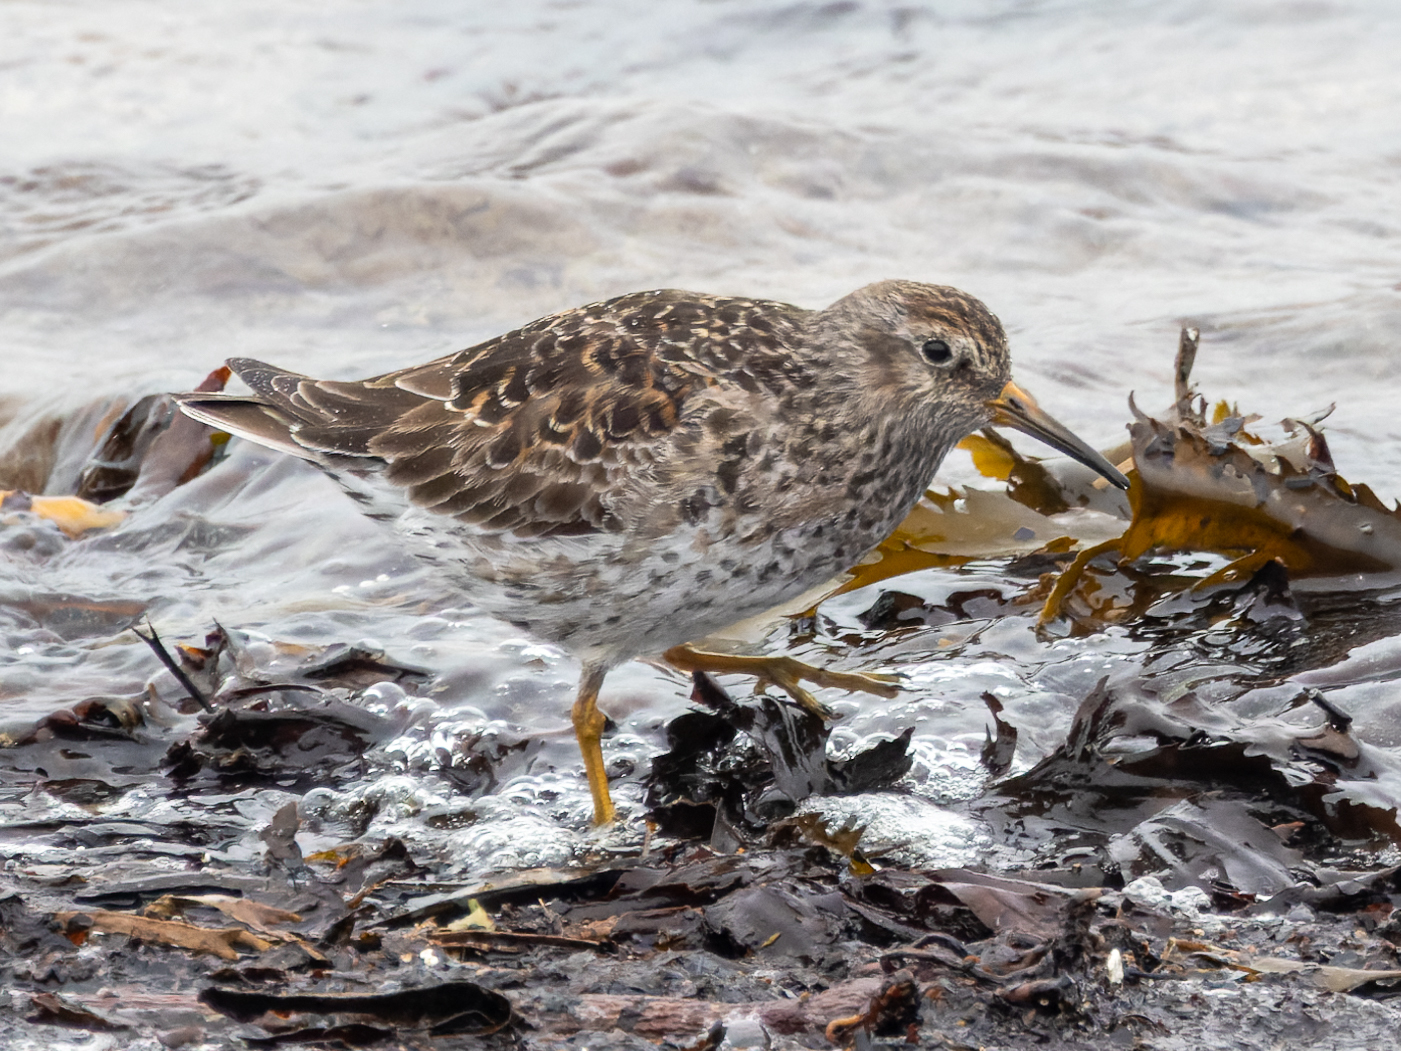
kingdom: Animalia
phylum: Chordata
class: Aves
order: Charadriiformes
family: Scolopacidae
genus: Calidris
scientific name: Calidris maritima
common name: Purple sandpiper
